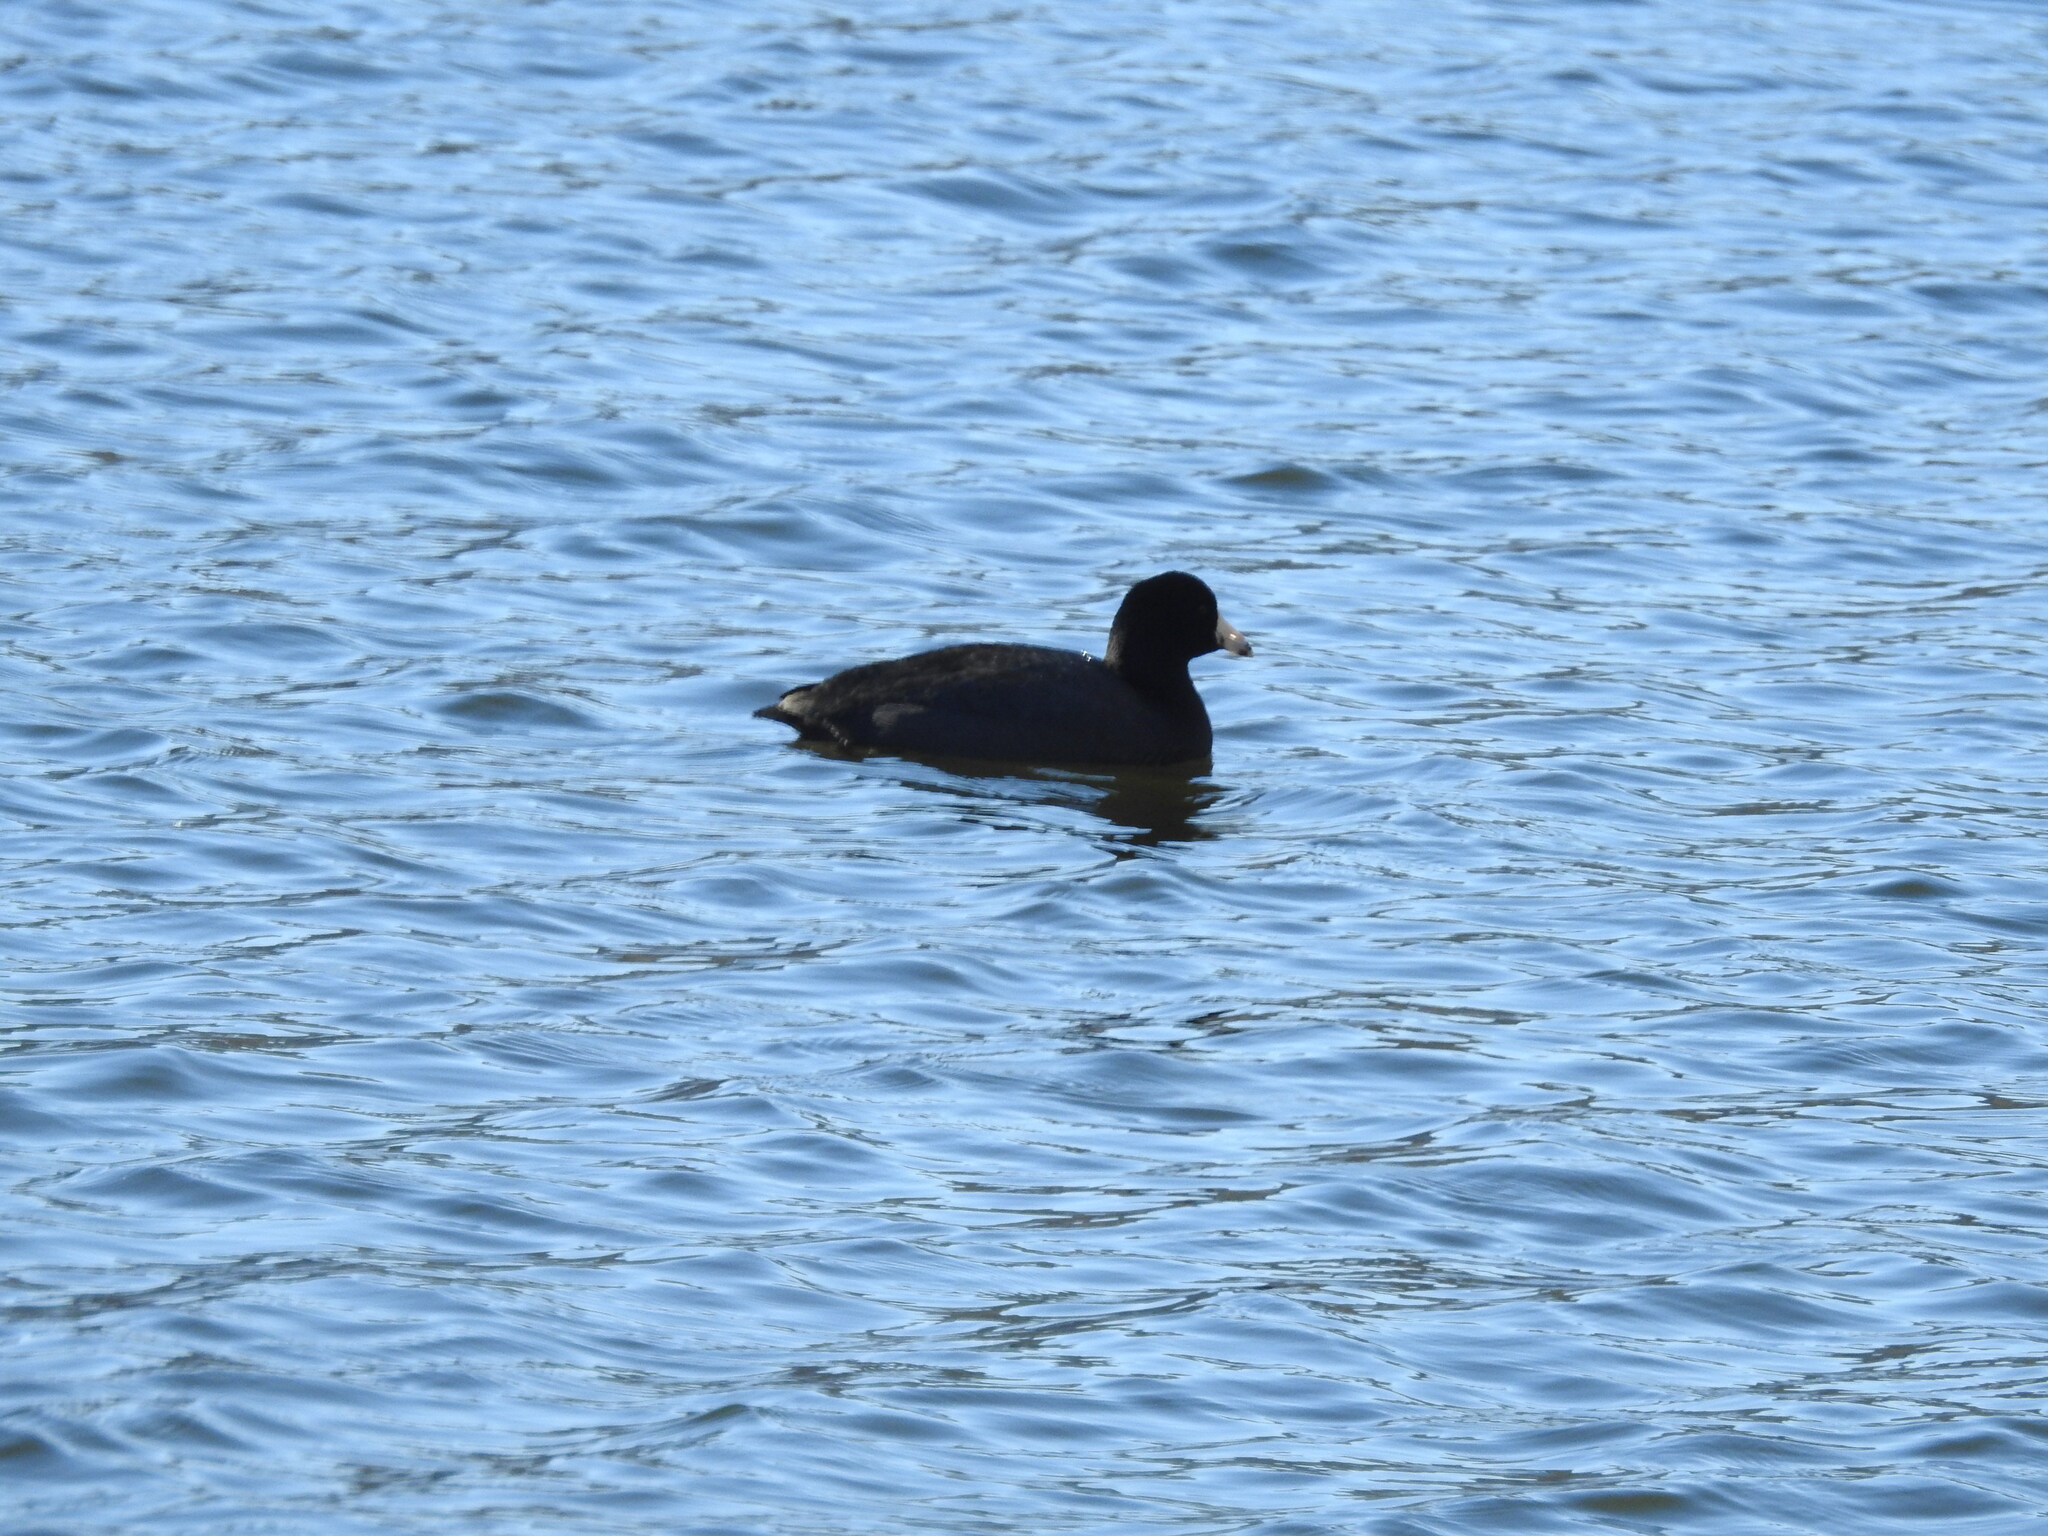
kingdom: Animalia
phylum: Chordata
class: Aves
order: Gruiformes
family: Rallidae
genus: Fulica
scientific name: Fulica americana
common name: American coot
